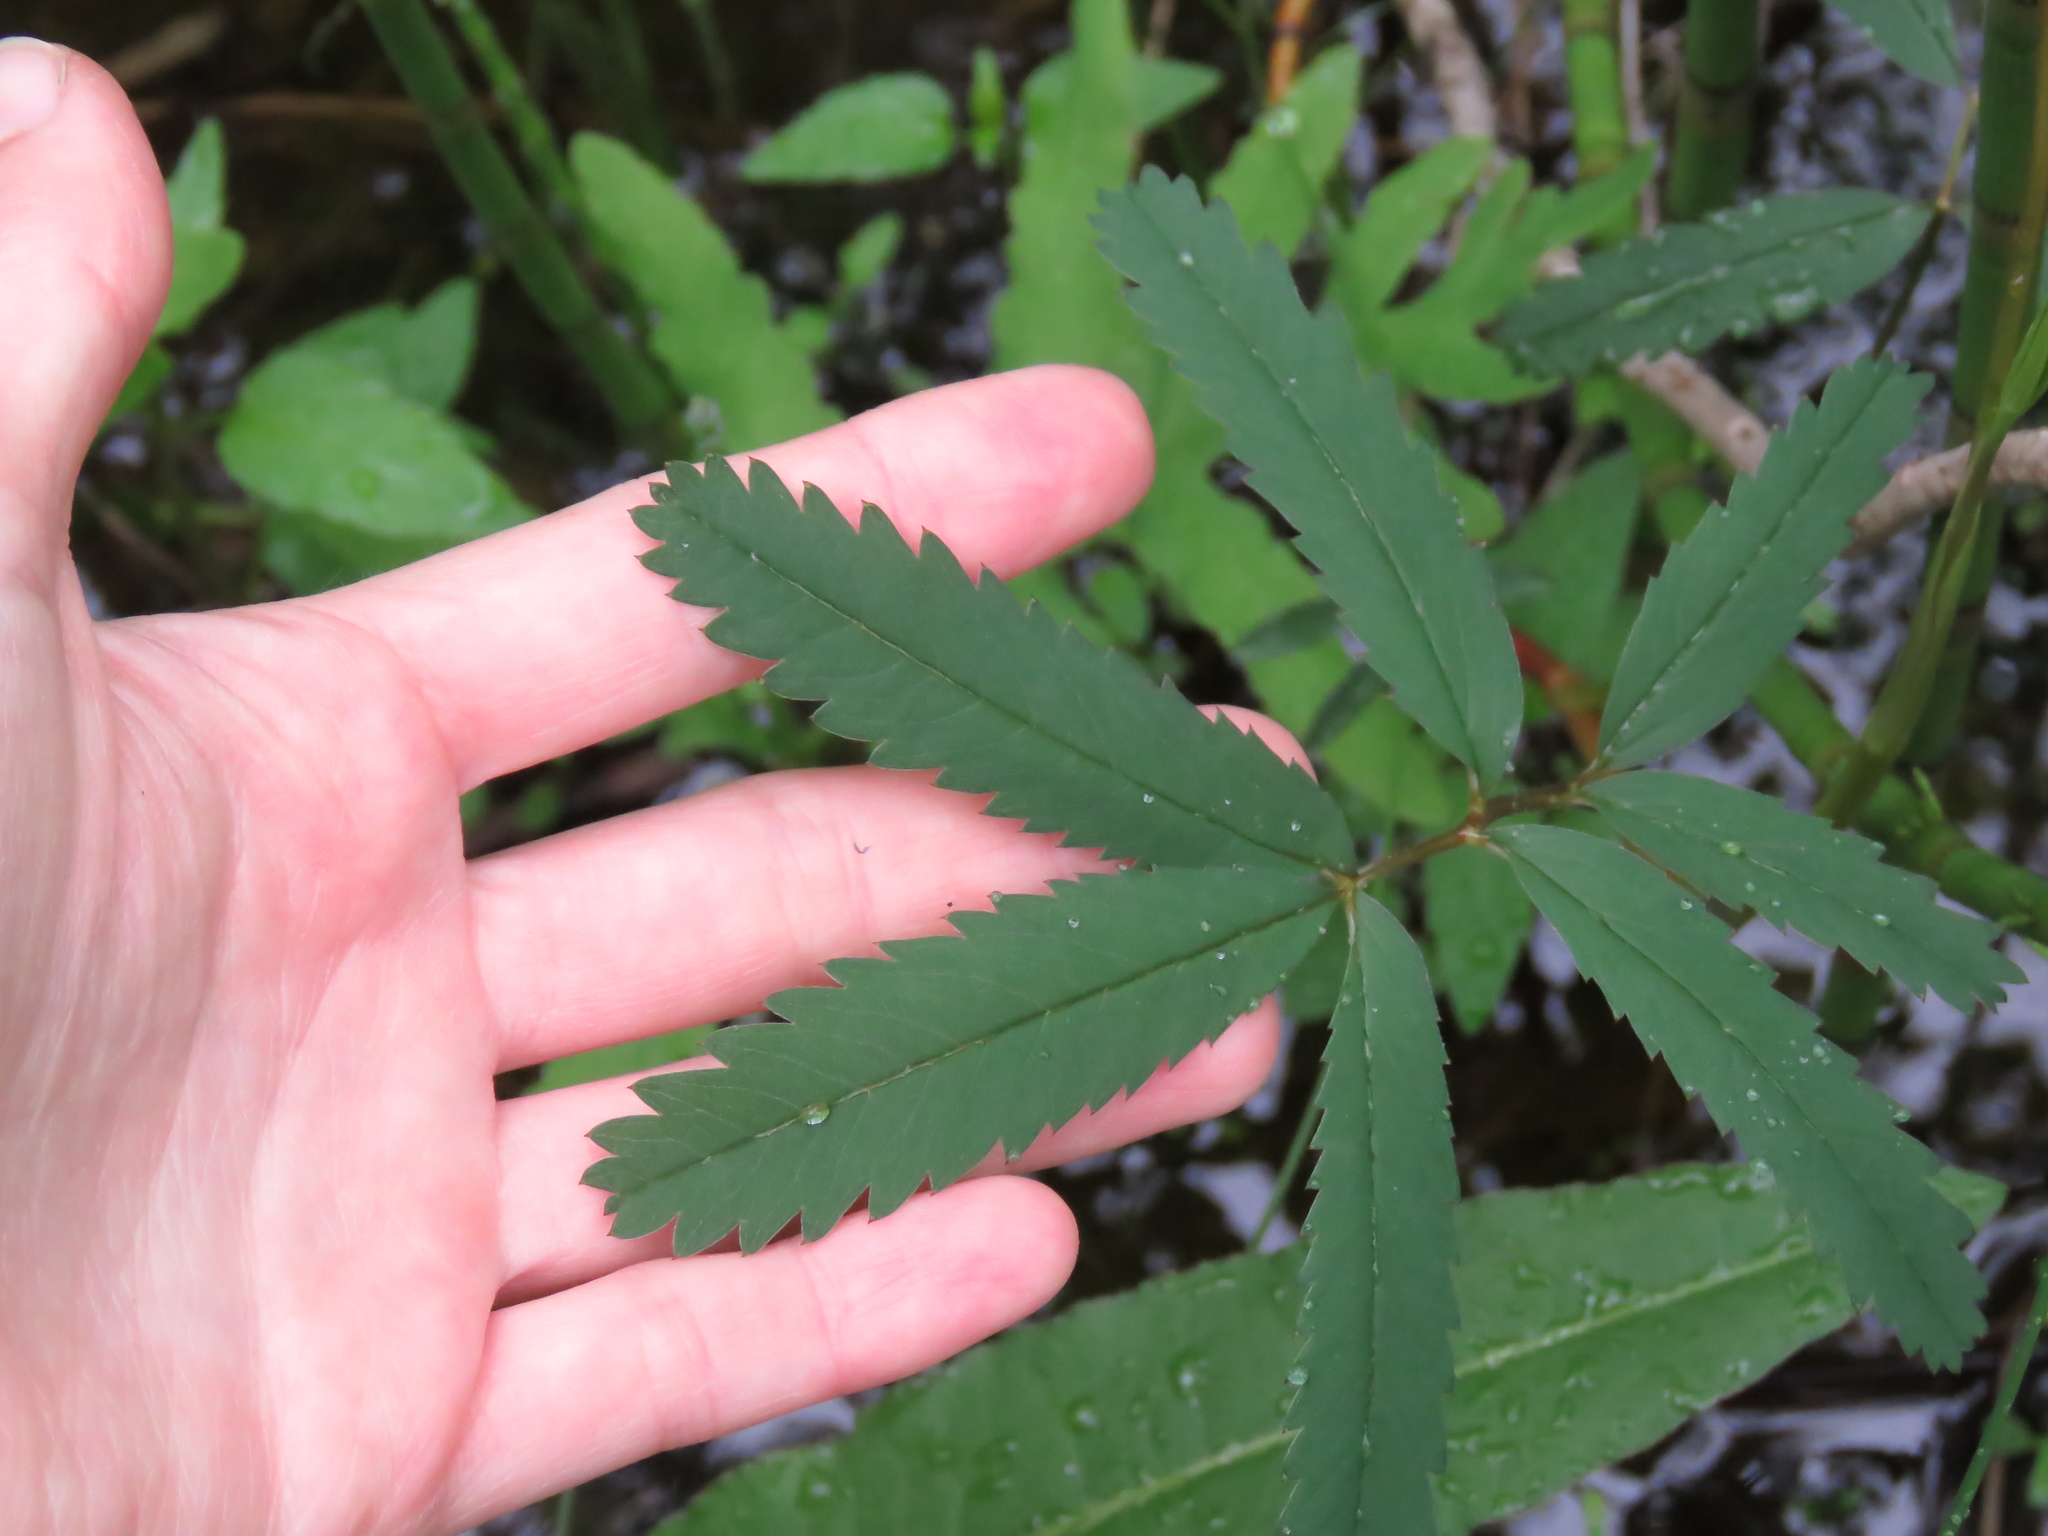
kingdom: Plantae
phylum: Tracheophyta
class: Magnoliopsida
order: Rosales
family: Rosaceae
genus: Comarum
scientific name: Comarum palustre
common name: Marsh cinquefoil
